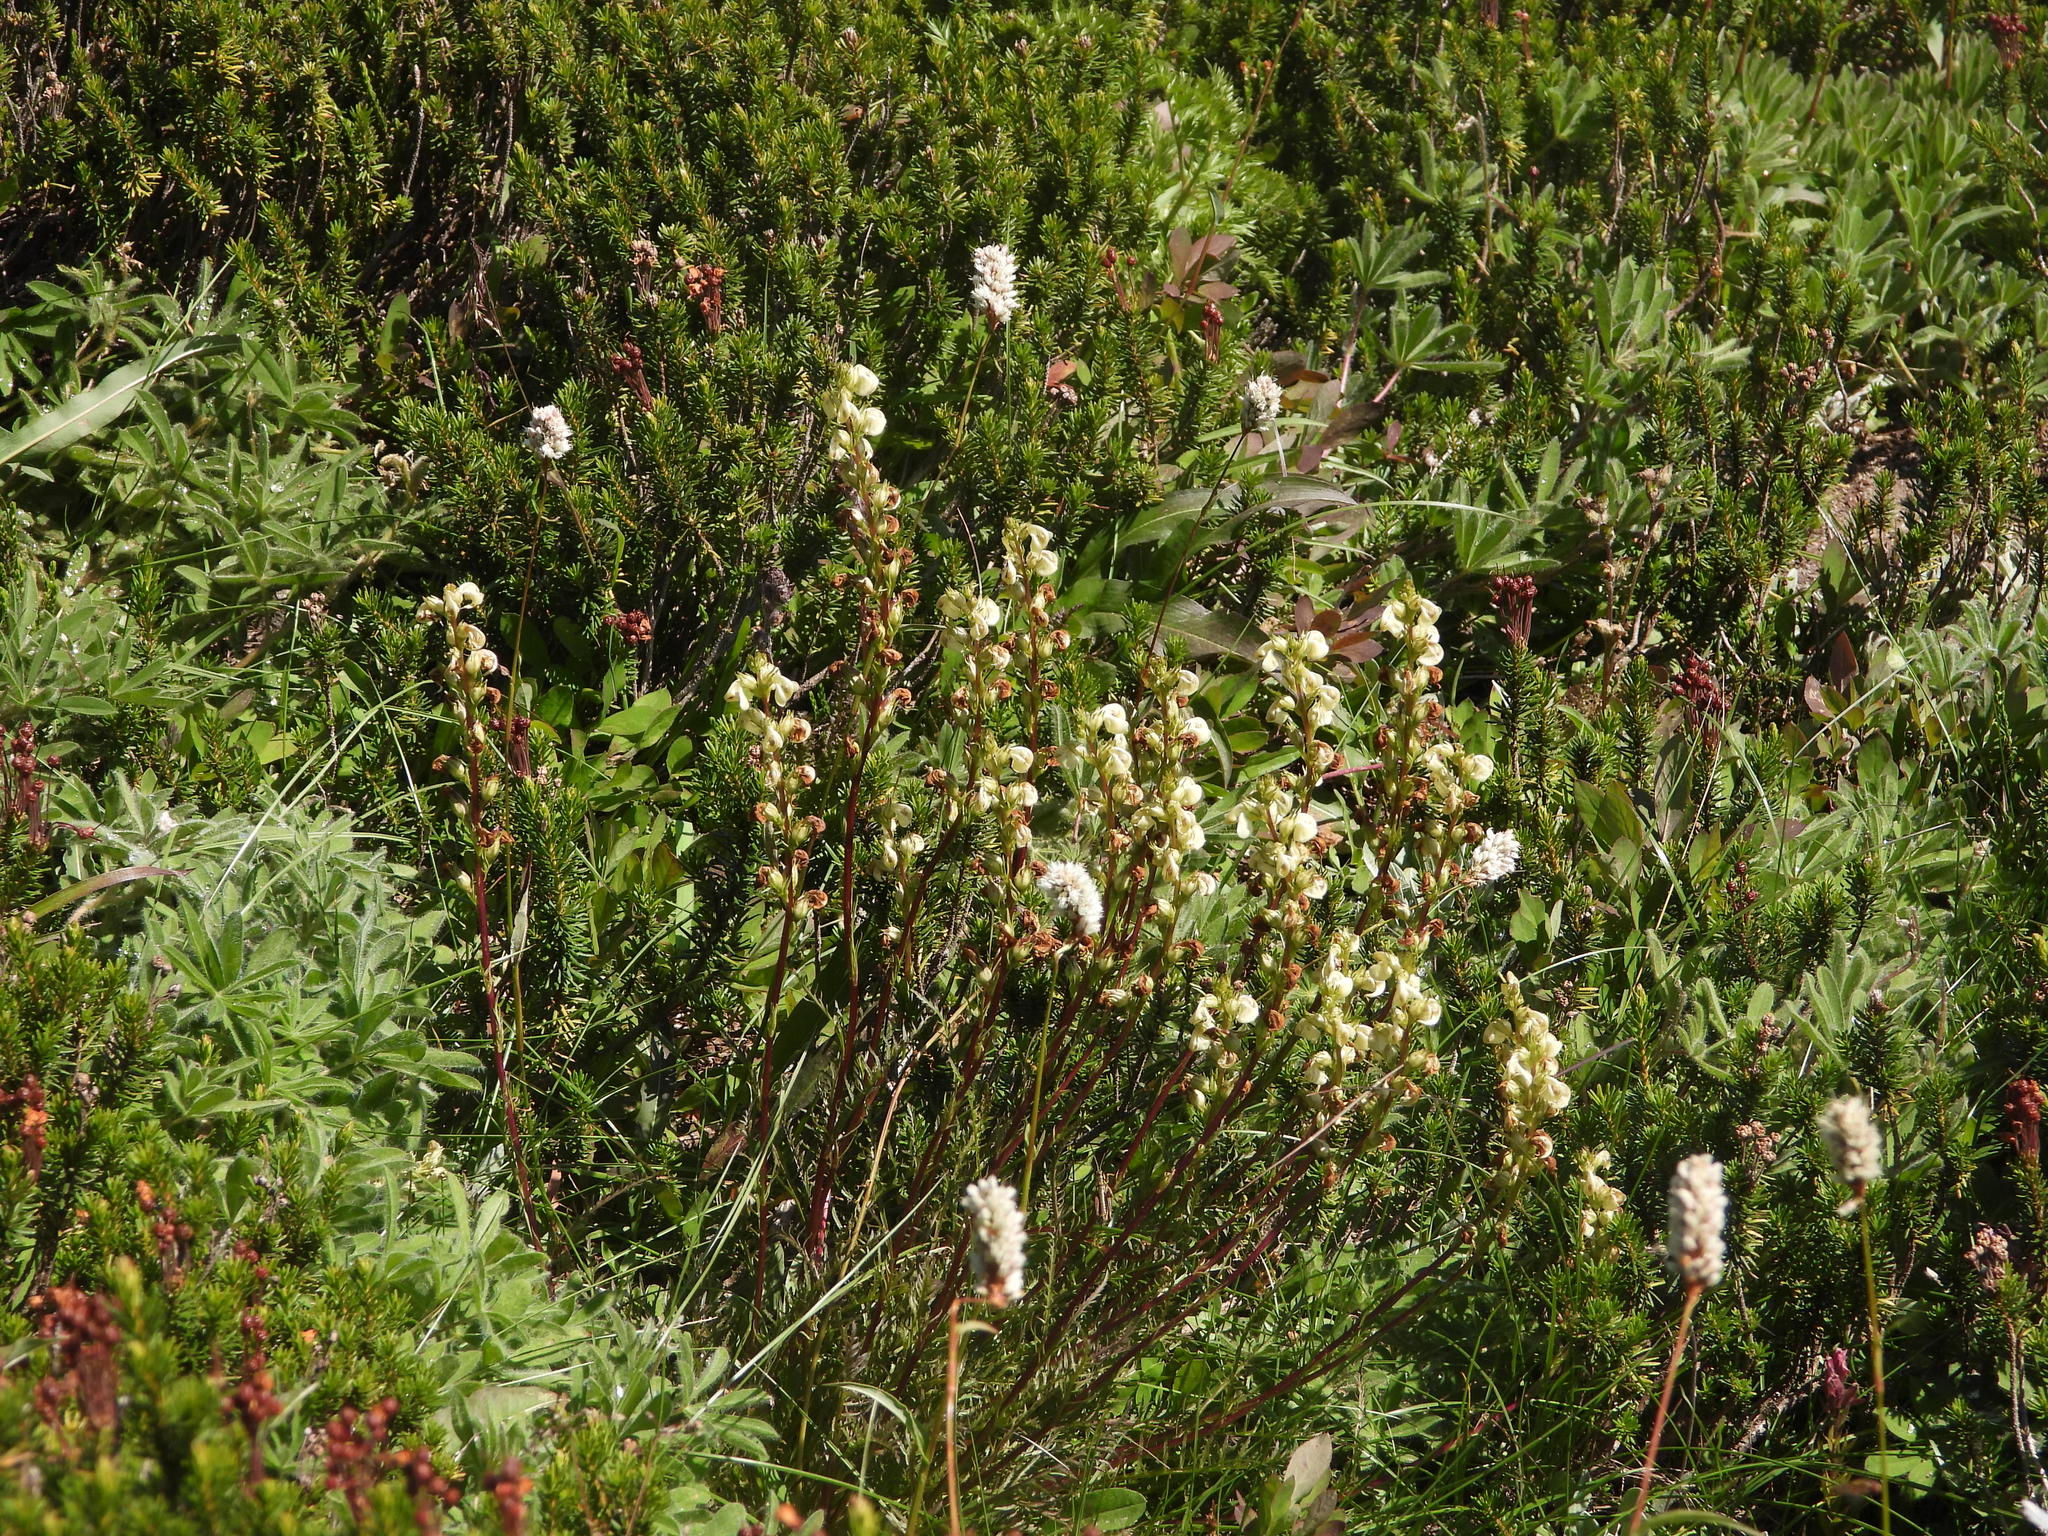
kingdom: Plantae
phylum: Tracheophyta
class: Magnoliopsida
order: Lamiales
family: Orobanchaceae
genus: Pedicularis
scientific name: Pedicularis contorta
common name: Coiled lousewort
